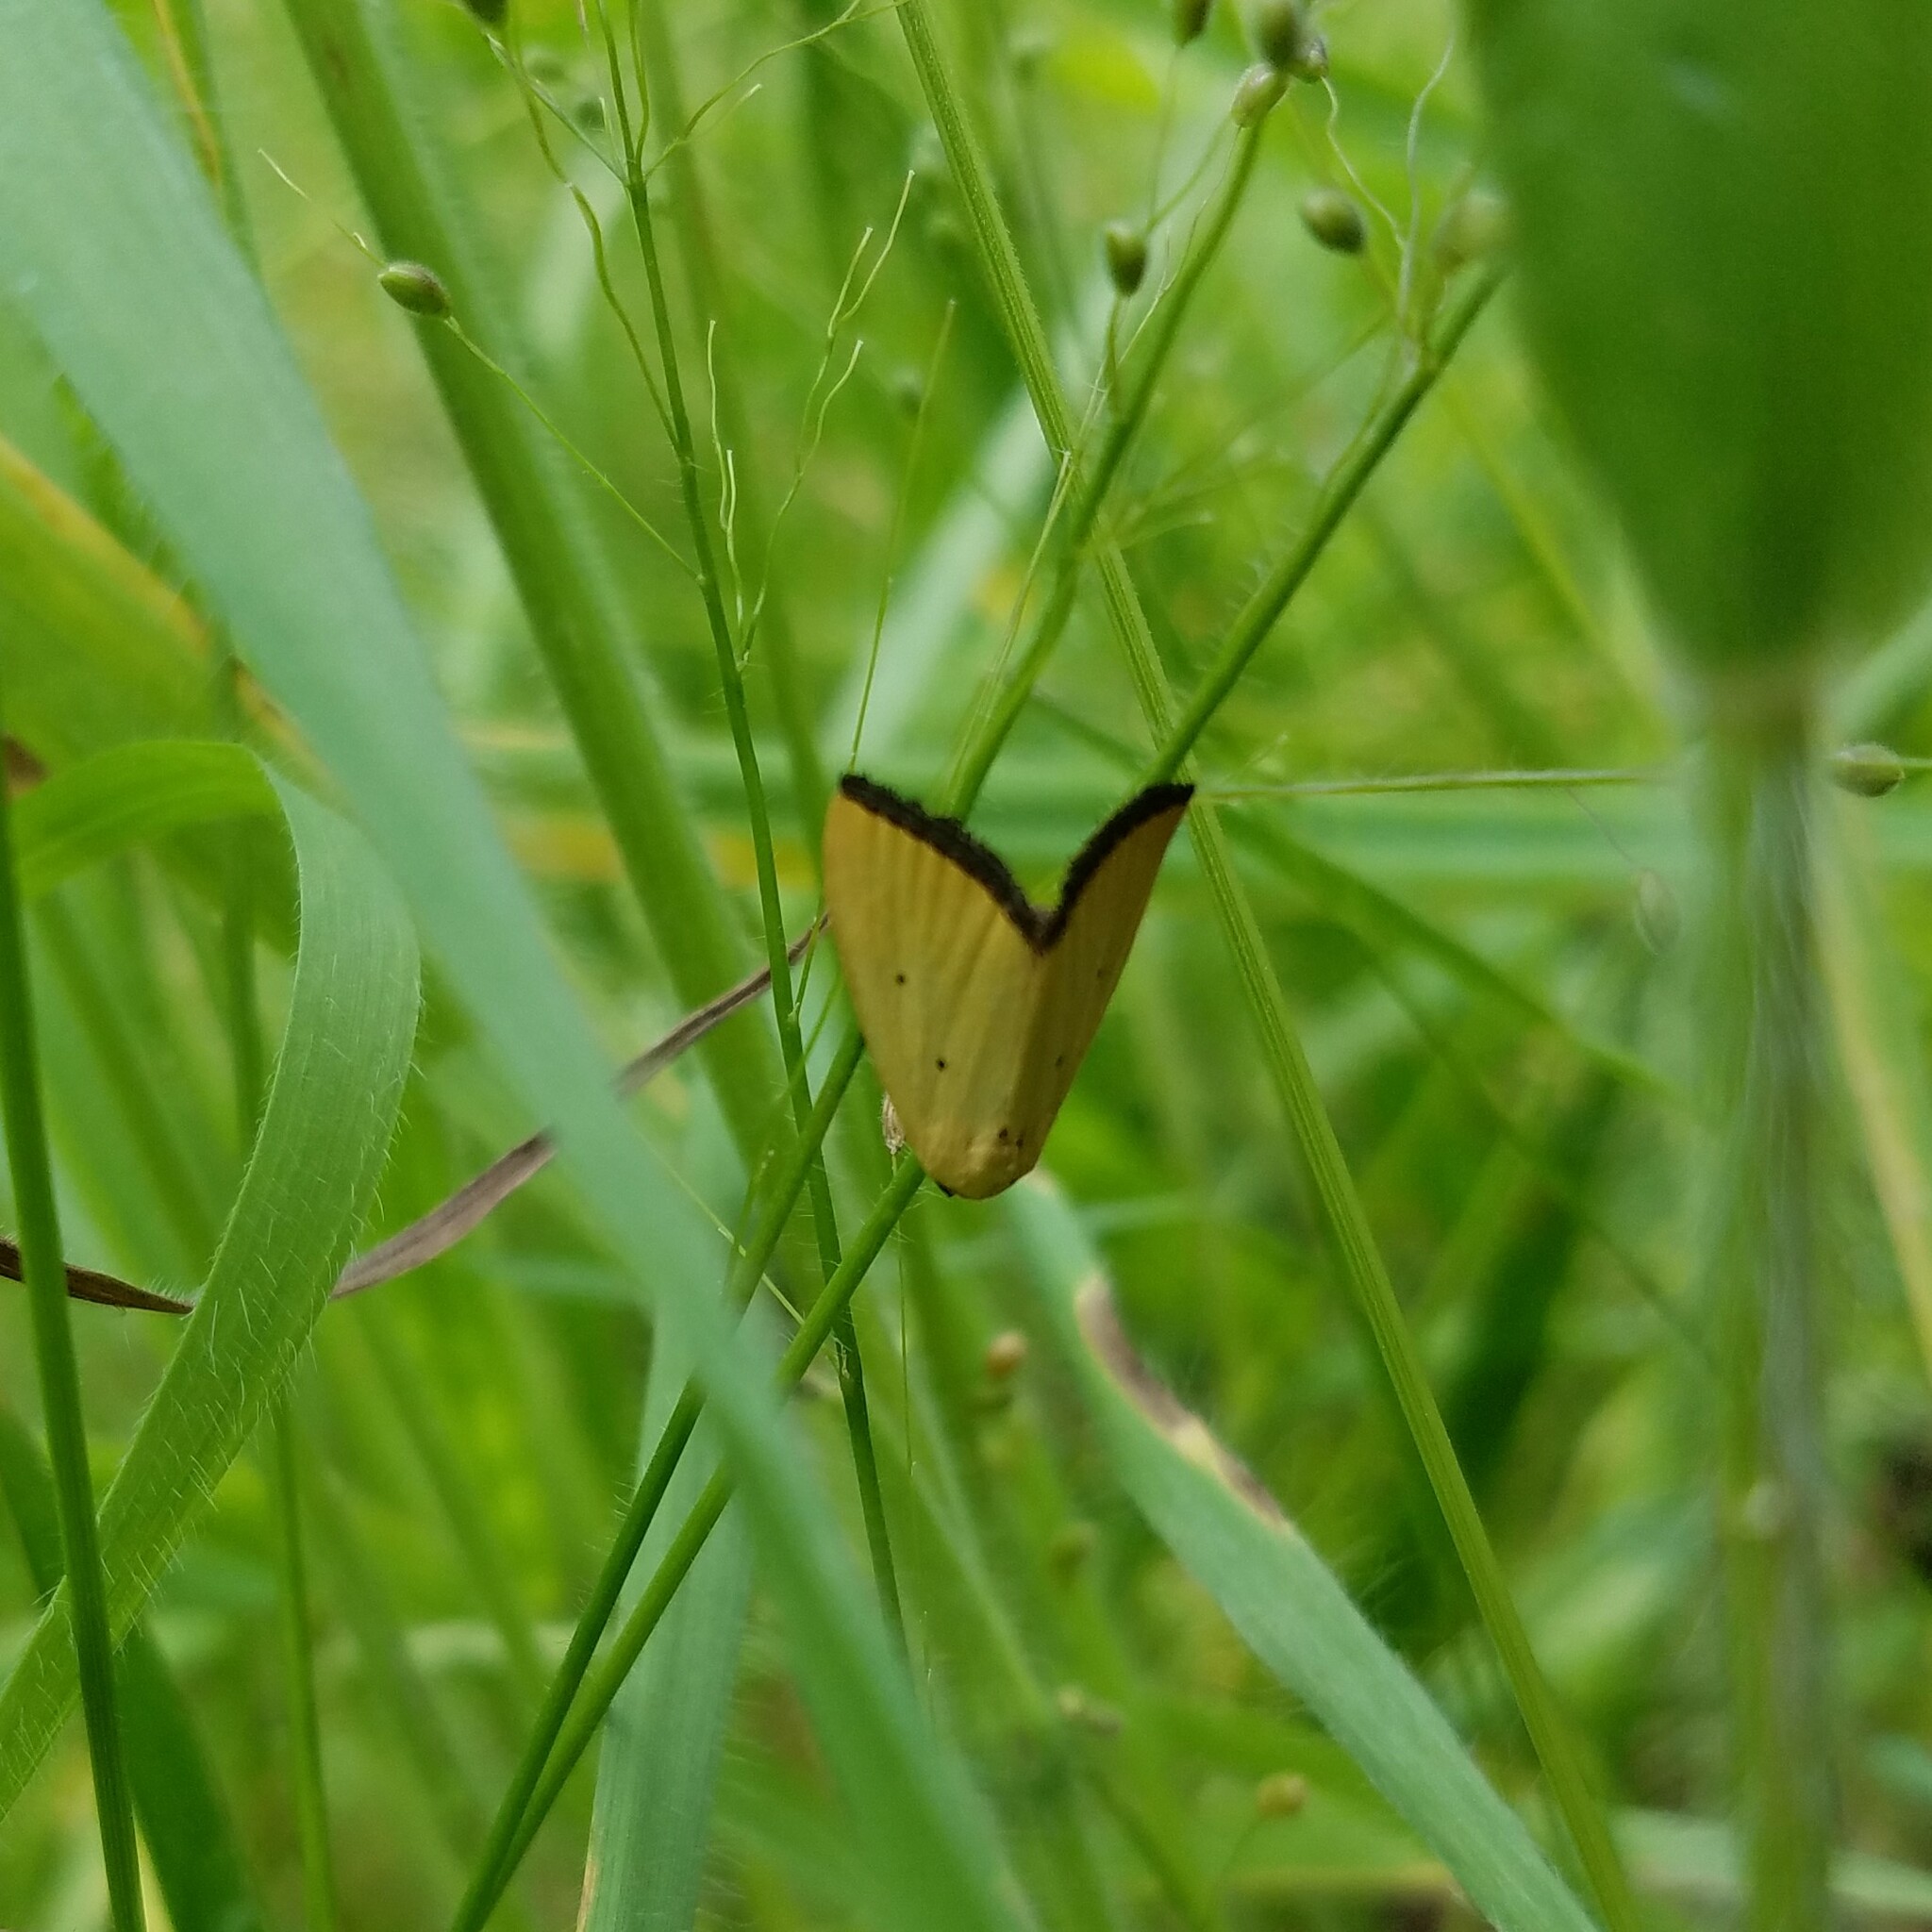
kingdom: Animalia
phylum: Arthropoda
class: Insecta
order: Lepidoptera
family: Noctuidae
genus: Marimatha
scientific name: Marimatha nigrofimbria
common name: Black-bordered lemon moth
